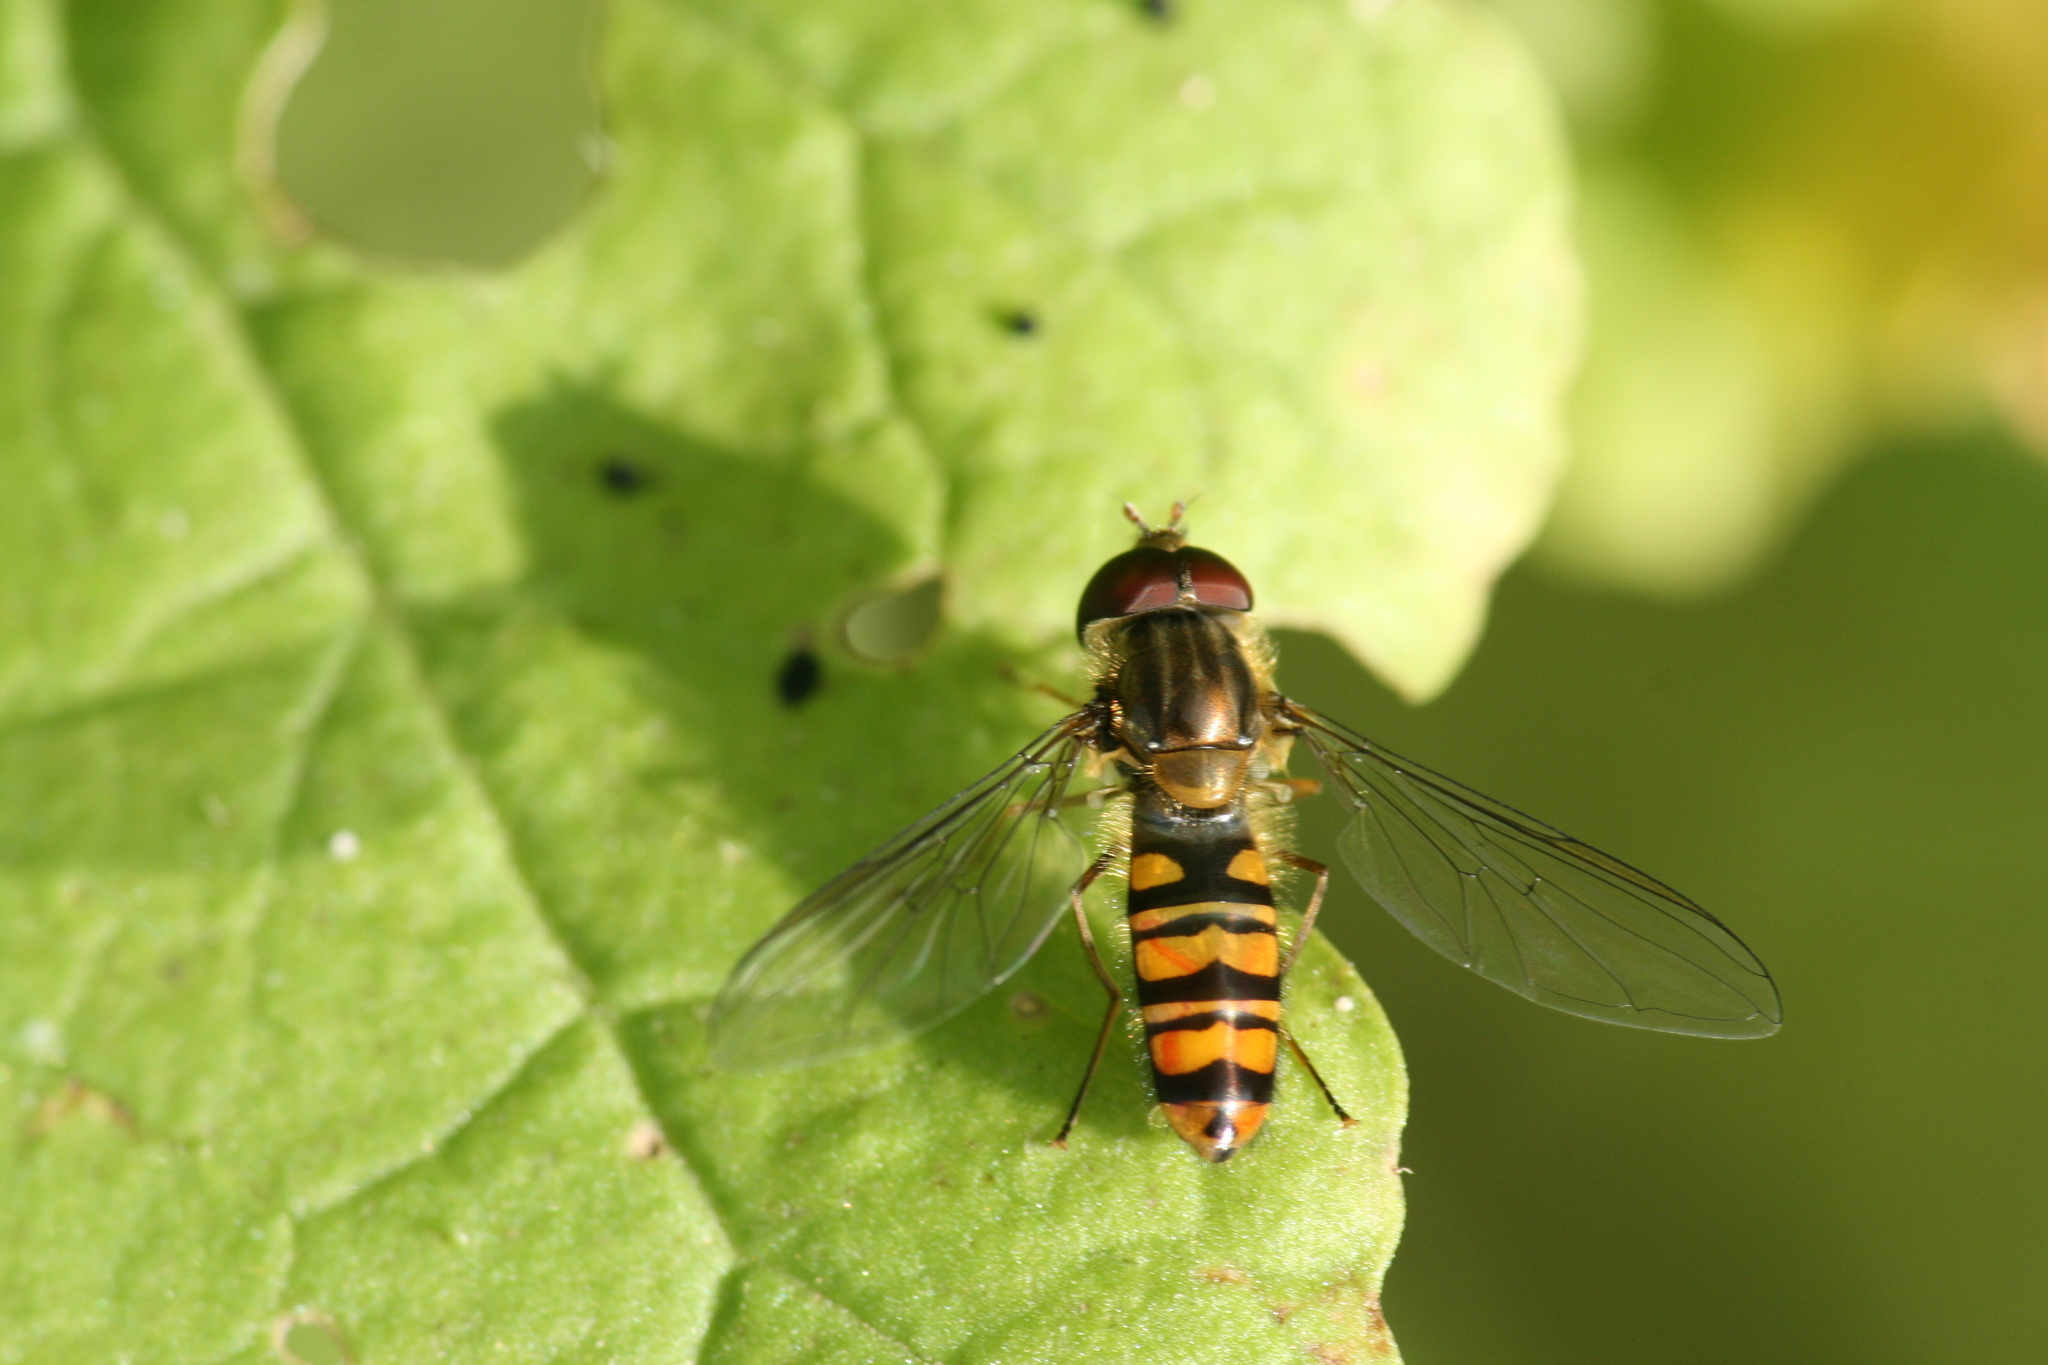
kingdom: Animalia
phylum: Arthropoda
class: Insecta
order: Diptera
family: Syrphidae
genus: Episyrphus
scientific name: Episyrphus balteatus
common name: Marmalade hoverfly
